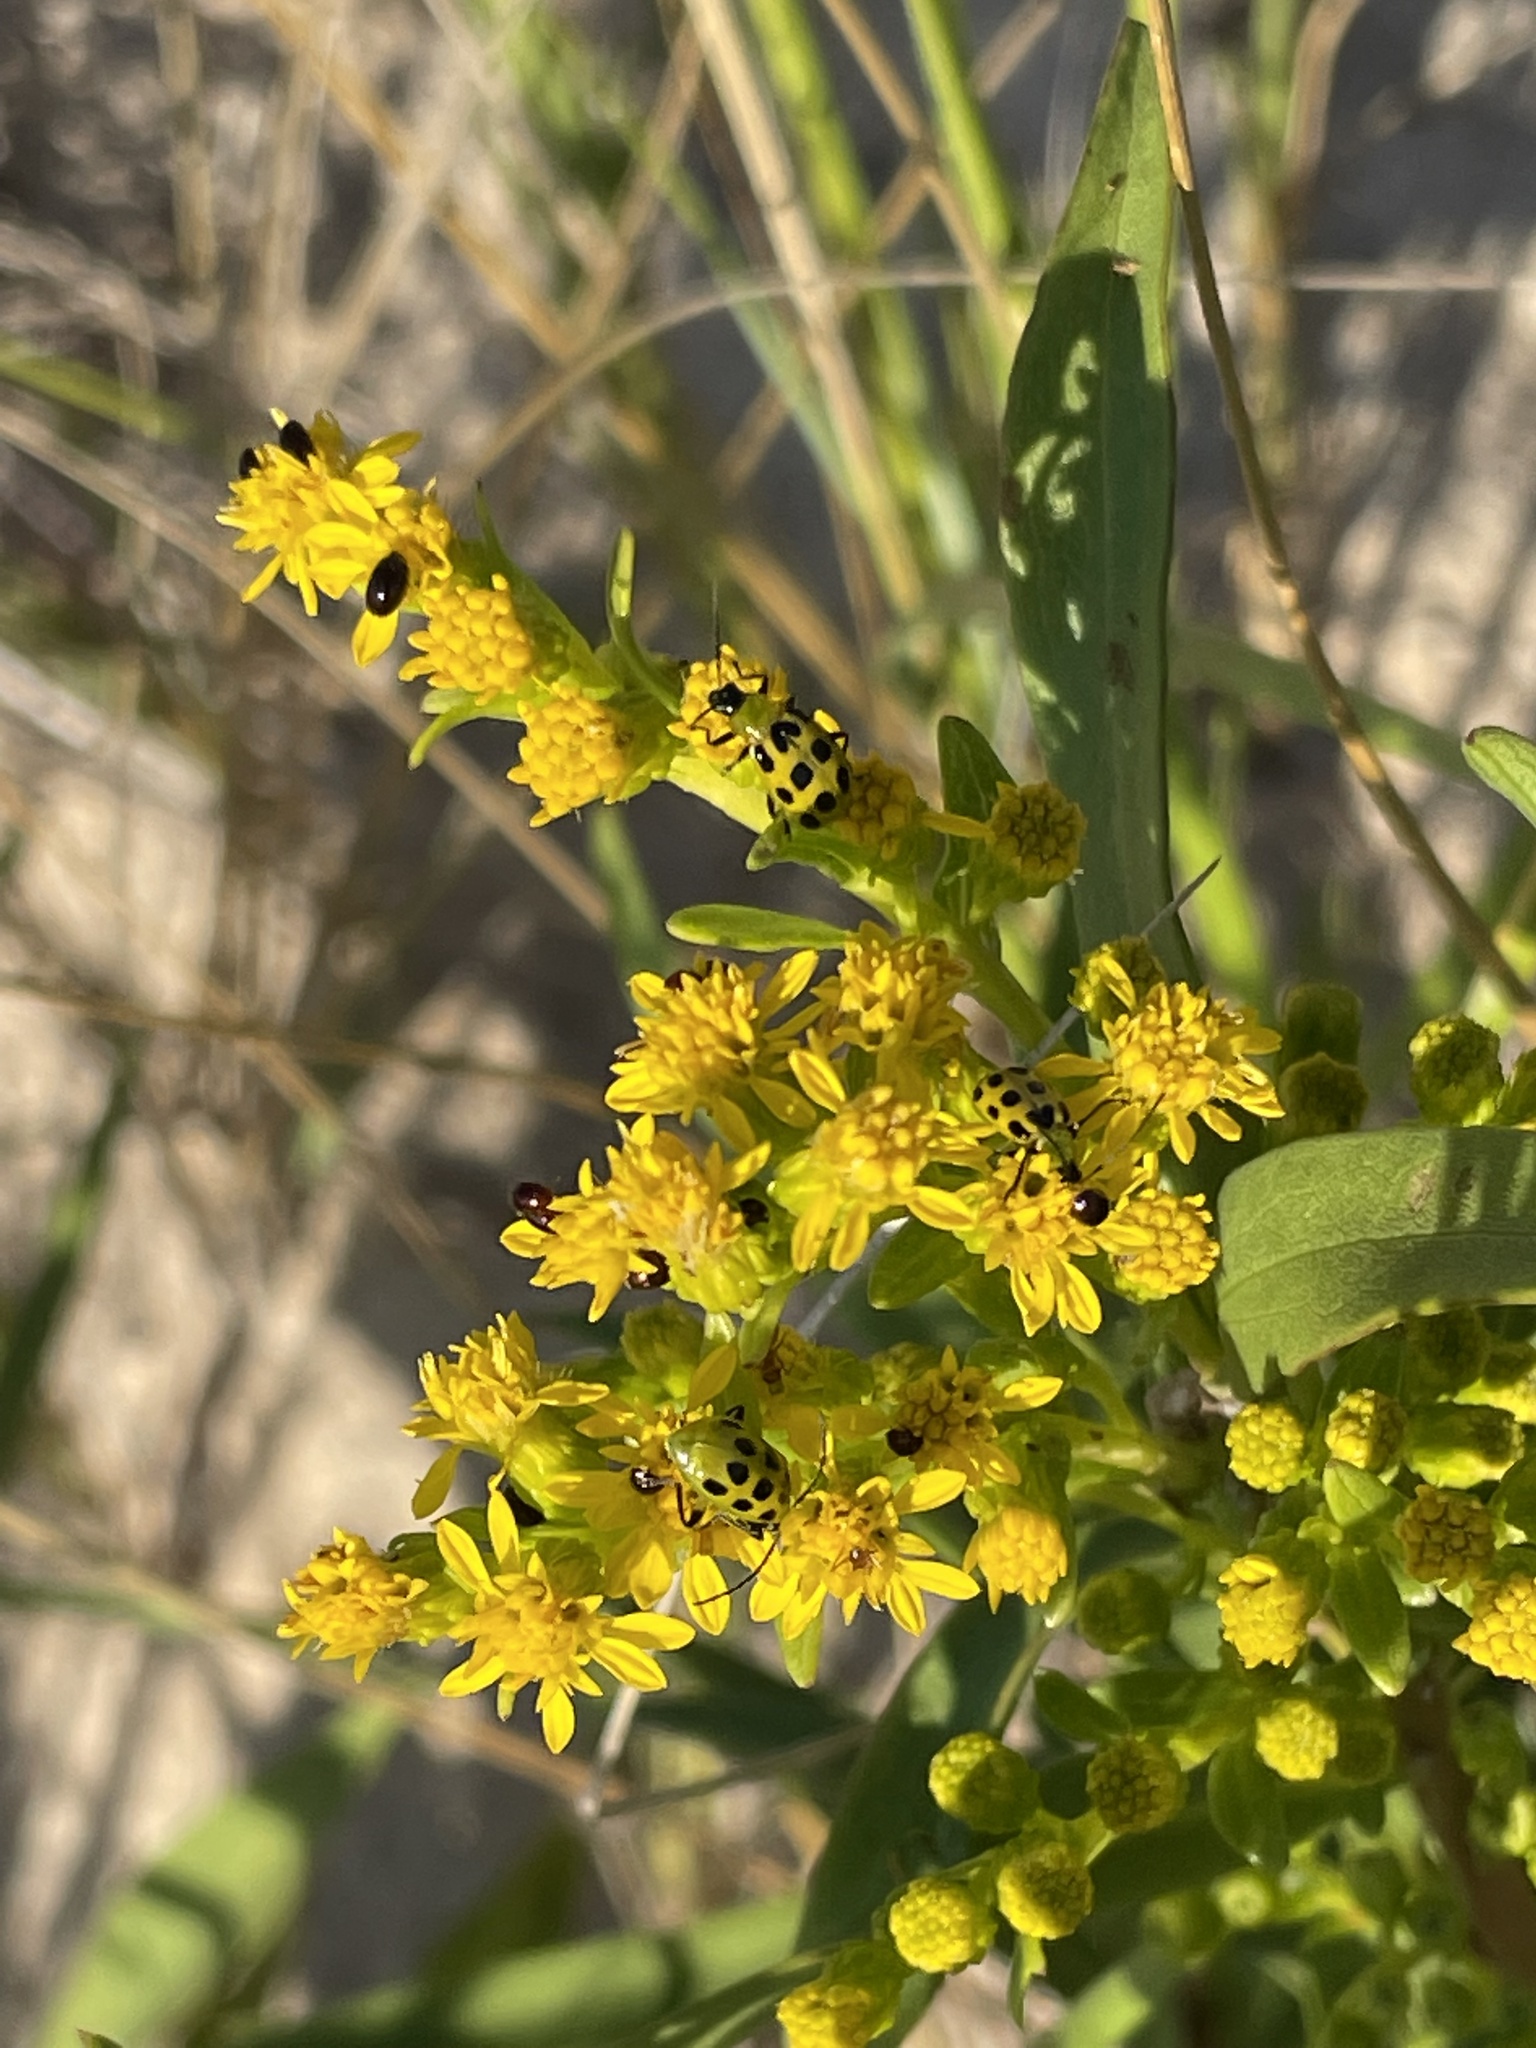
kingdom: Animalia
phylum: Arthropoda
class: Insecta
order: Coleoptera
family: Chrysomelidae
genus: Diabrotica
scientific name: Diabrotica undecimpunctata
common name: Spotted cucumber beetle
